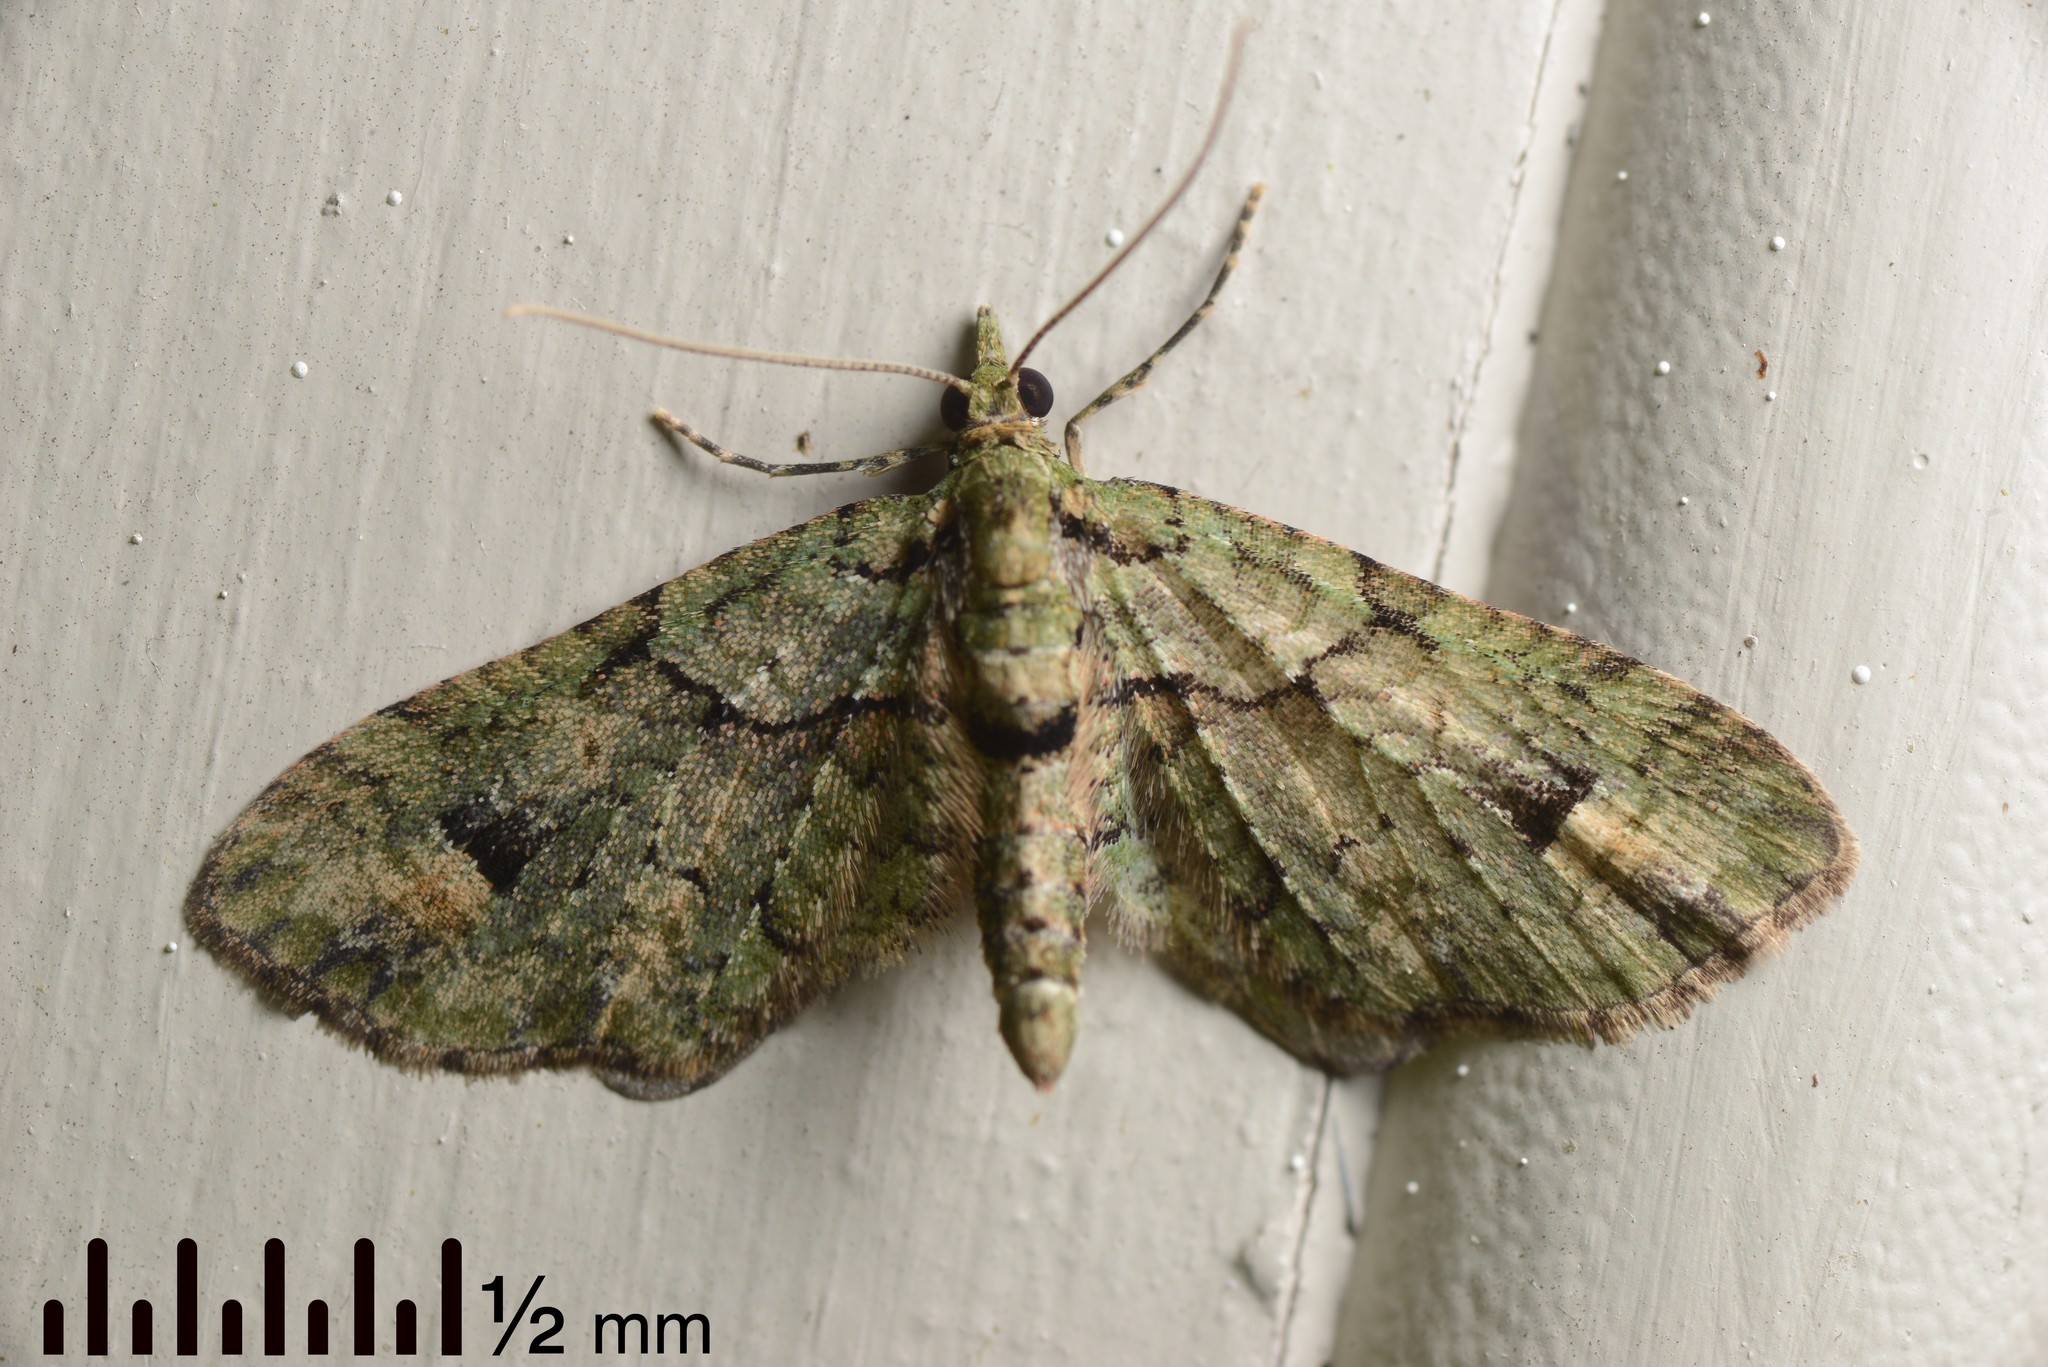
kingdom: Animalia
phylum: Arthropoda
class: Insecta
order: Lepidoptera
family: Geometridae
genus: Idaea
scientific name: Idaea mutanda
